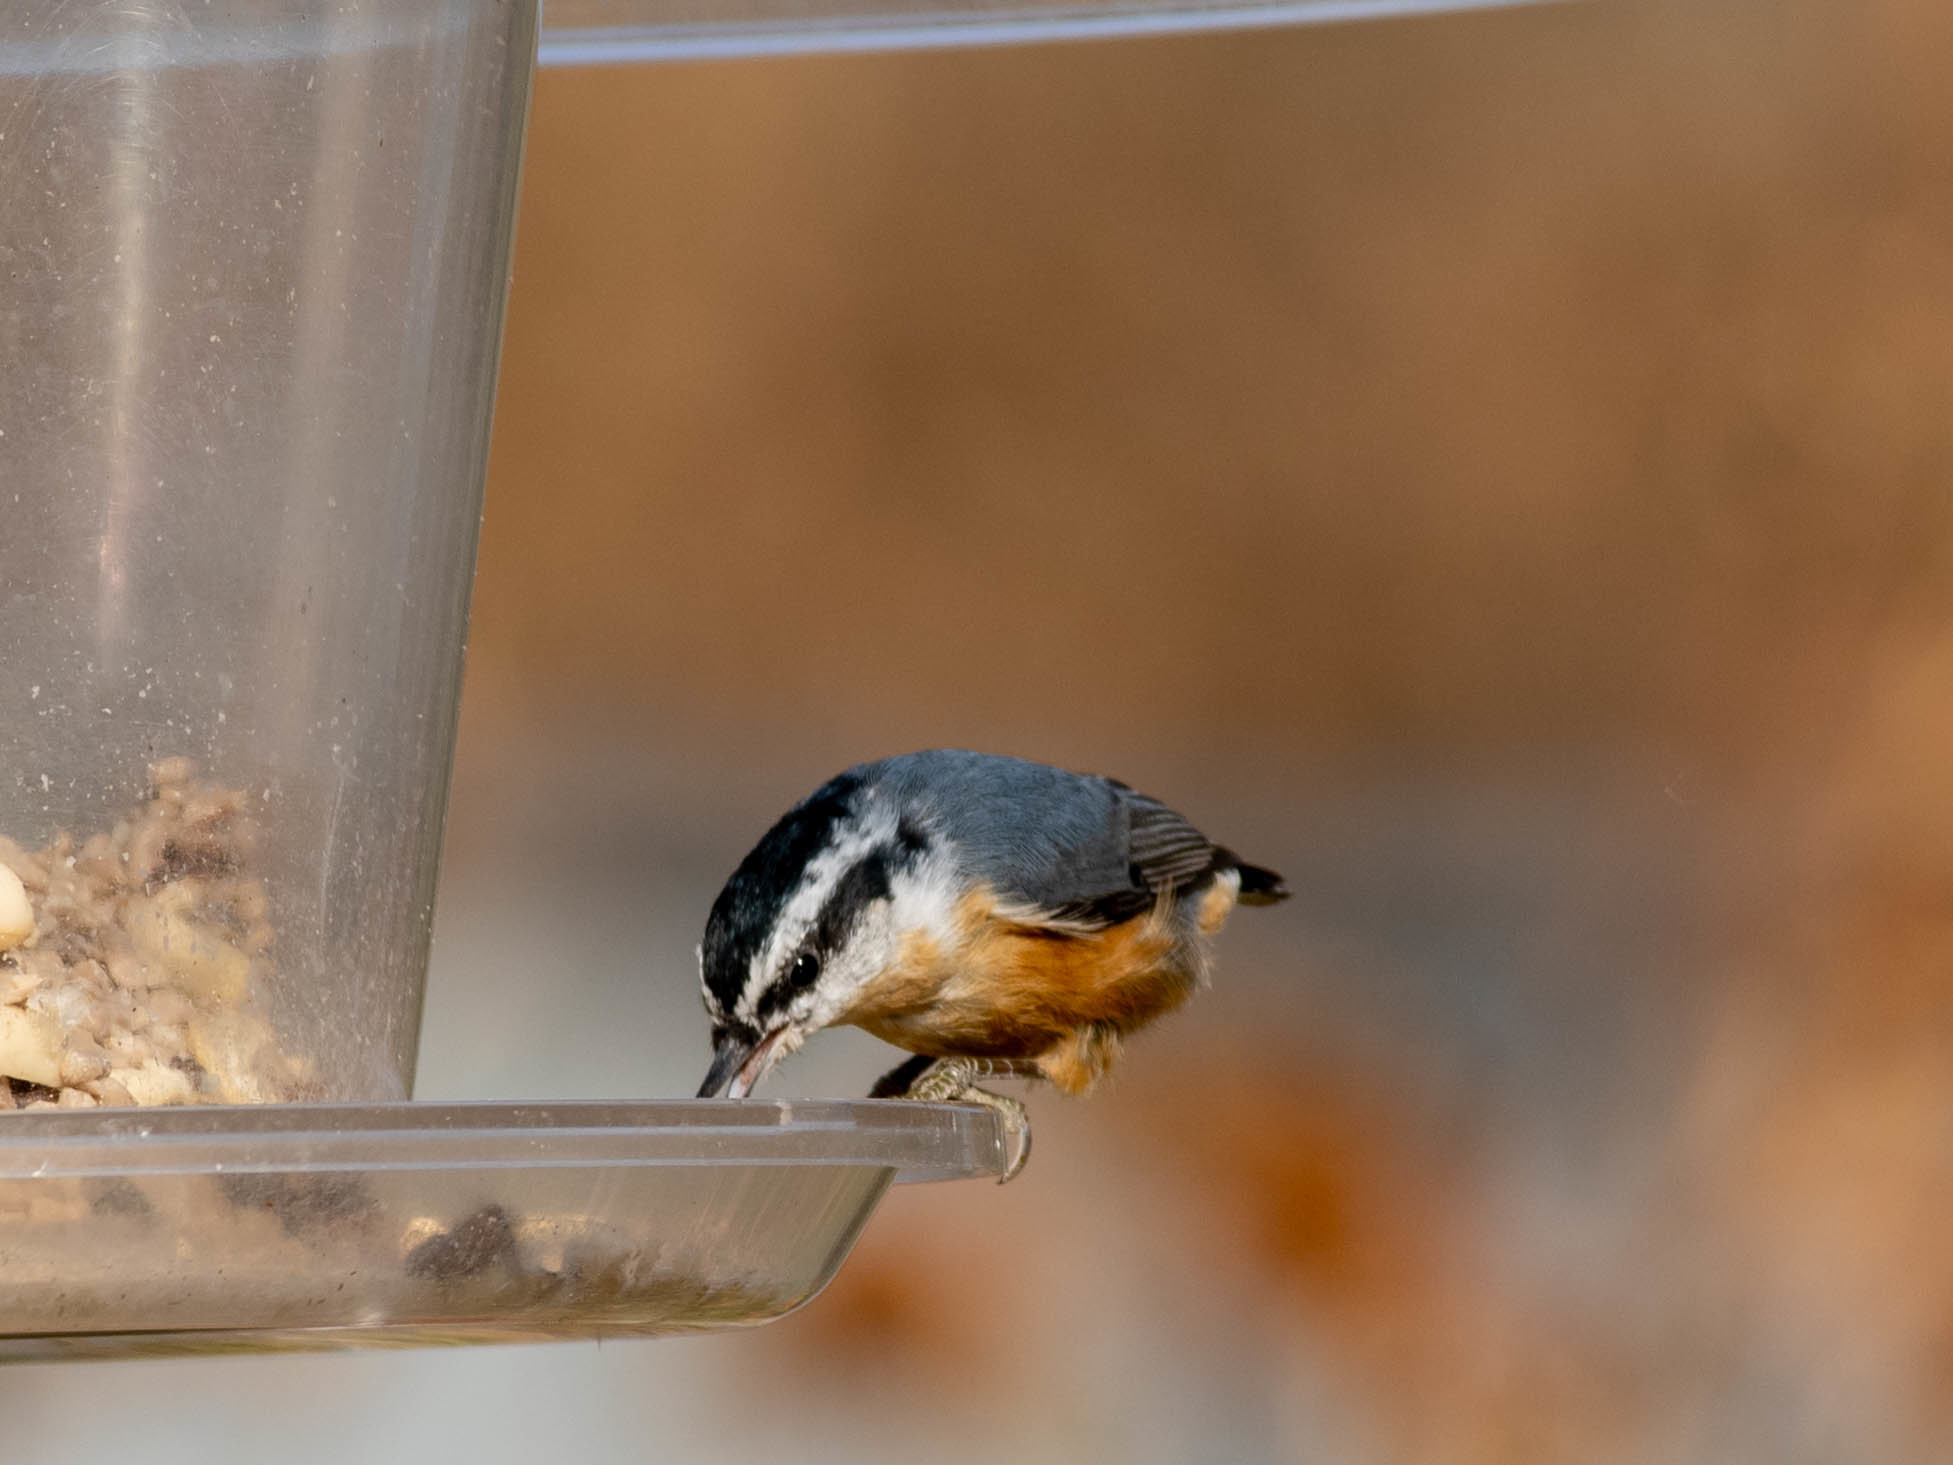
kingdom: Animalia
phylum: Chordata
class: Aves
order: Passeriformes
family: Sittidae
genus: Sitta
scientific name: Sitta canadensis
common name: Red-breasted nuthatch
